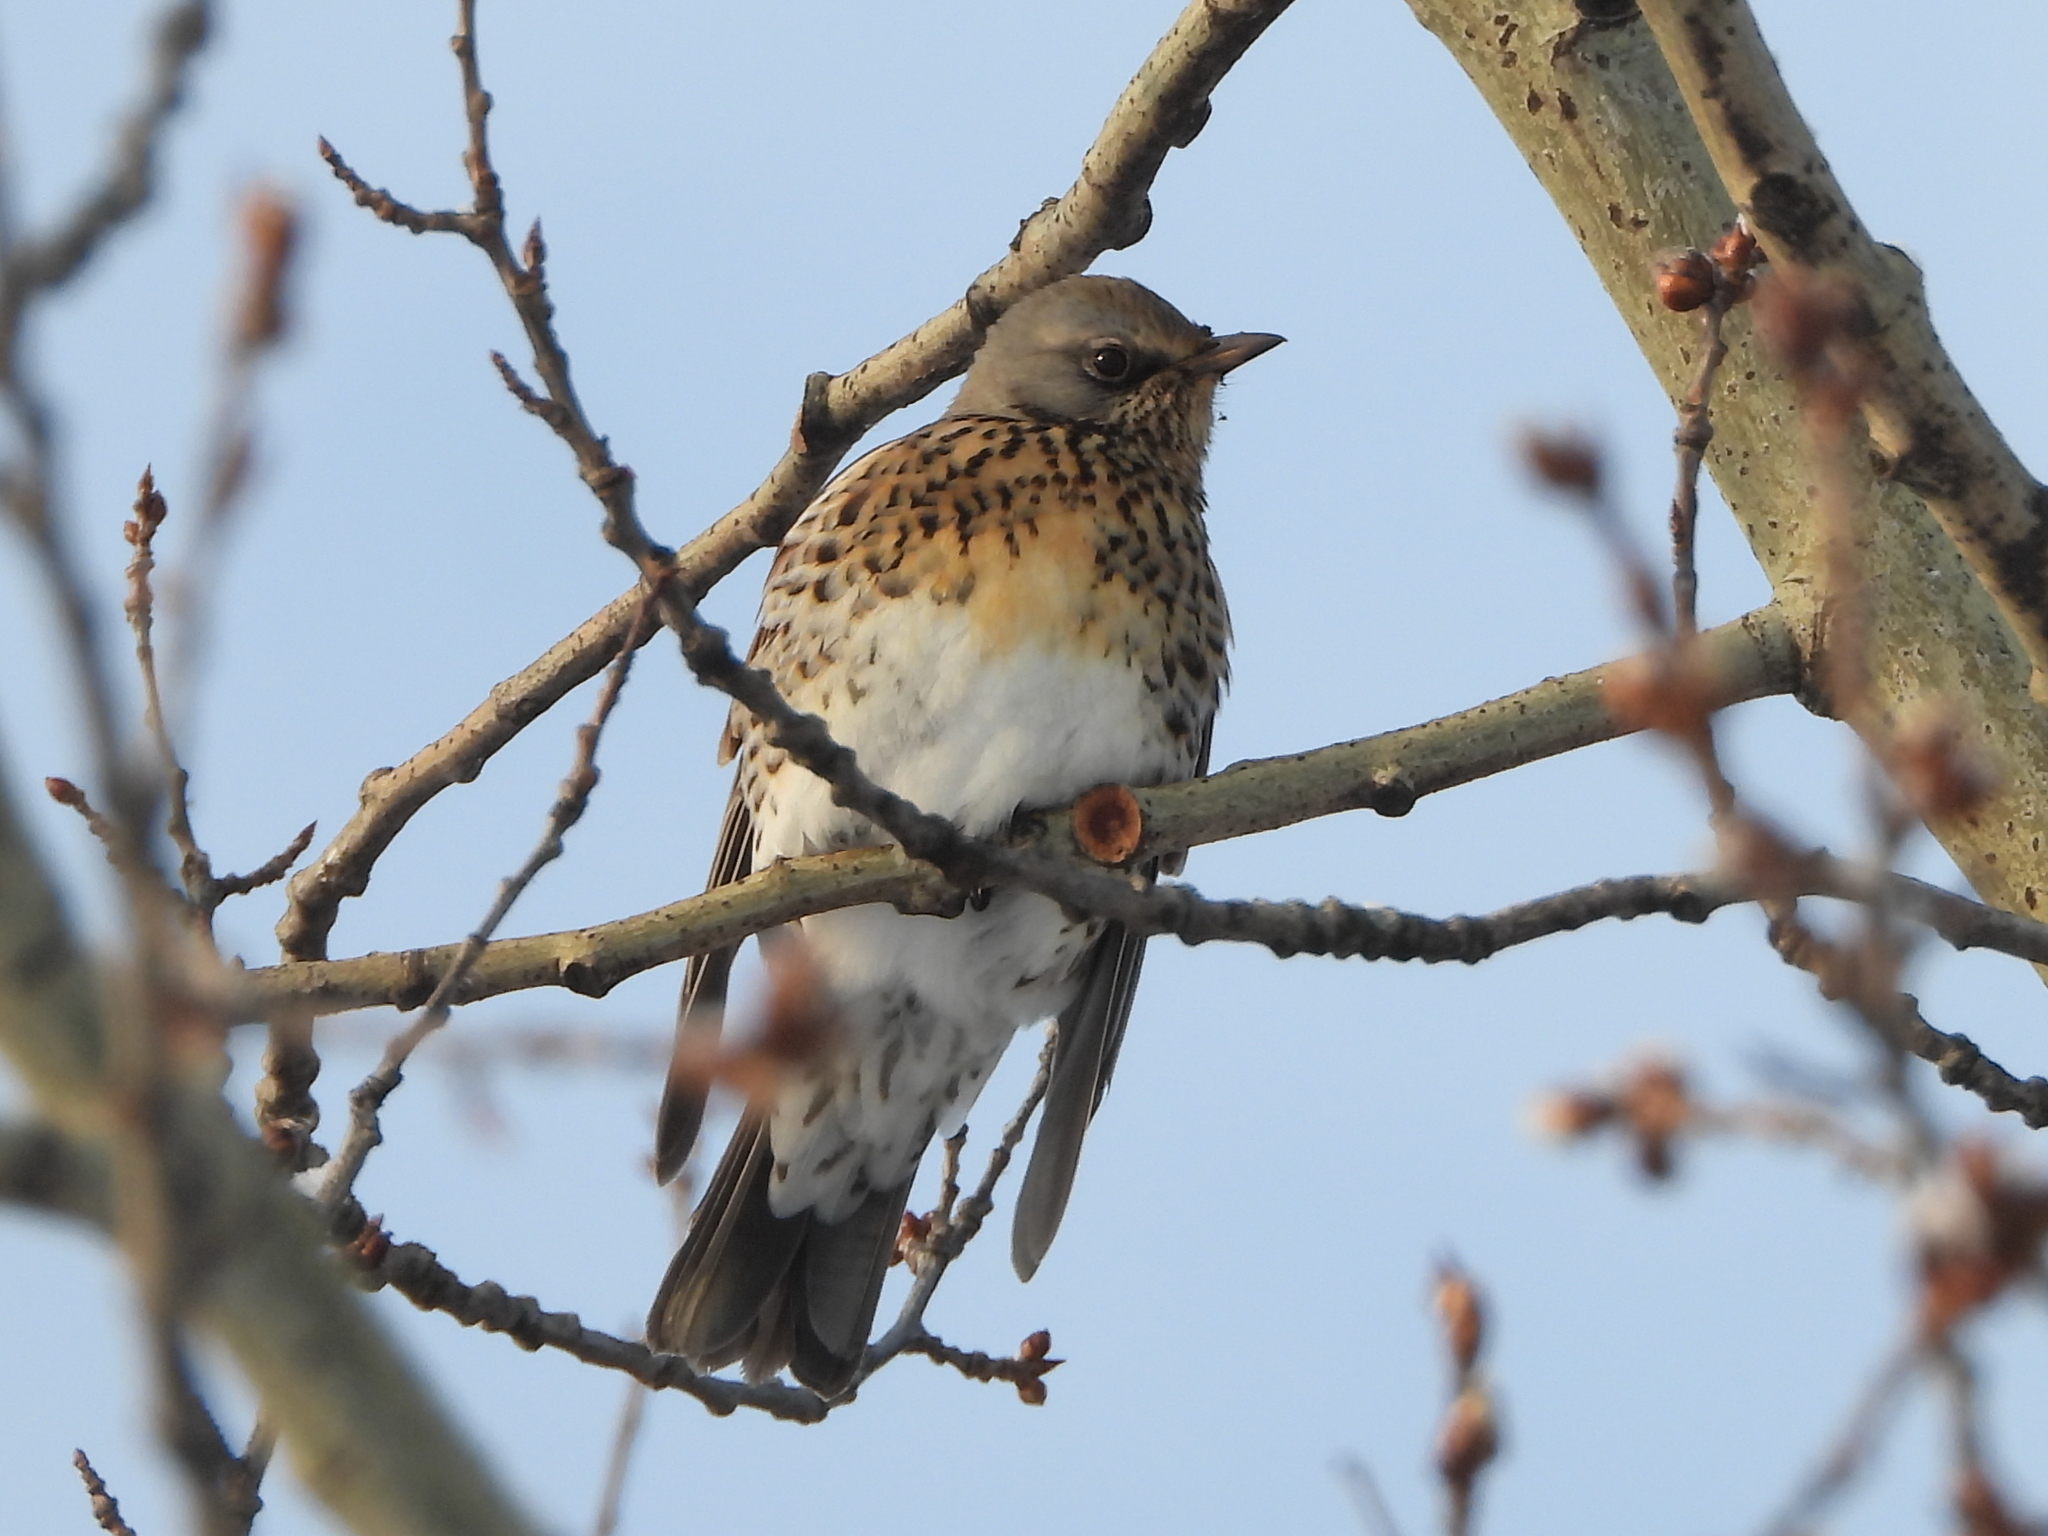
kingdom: Animalia
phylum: Chordata
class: Aves
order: Passeriformes
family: Turdidae
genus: Turdus
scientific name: Turdus pilaris
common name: Fieldfare
